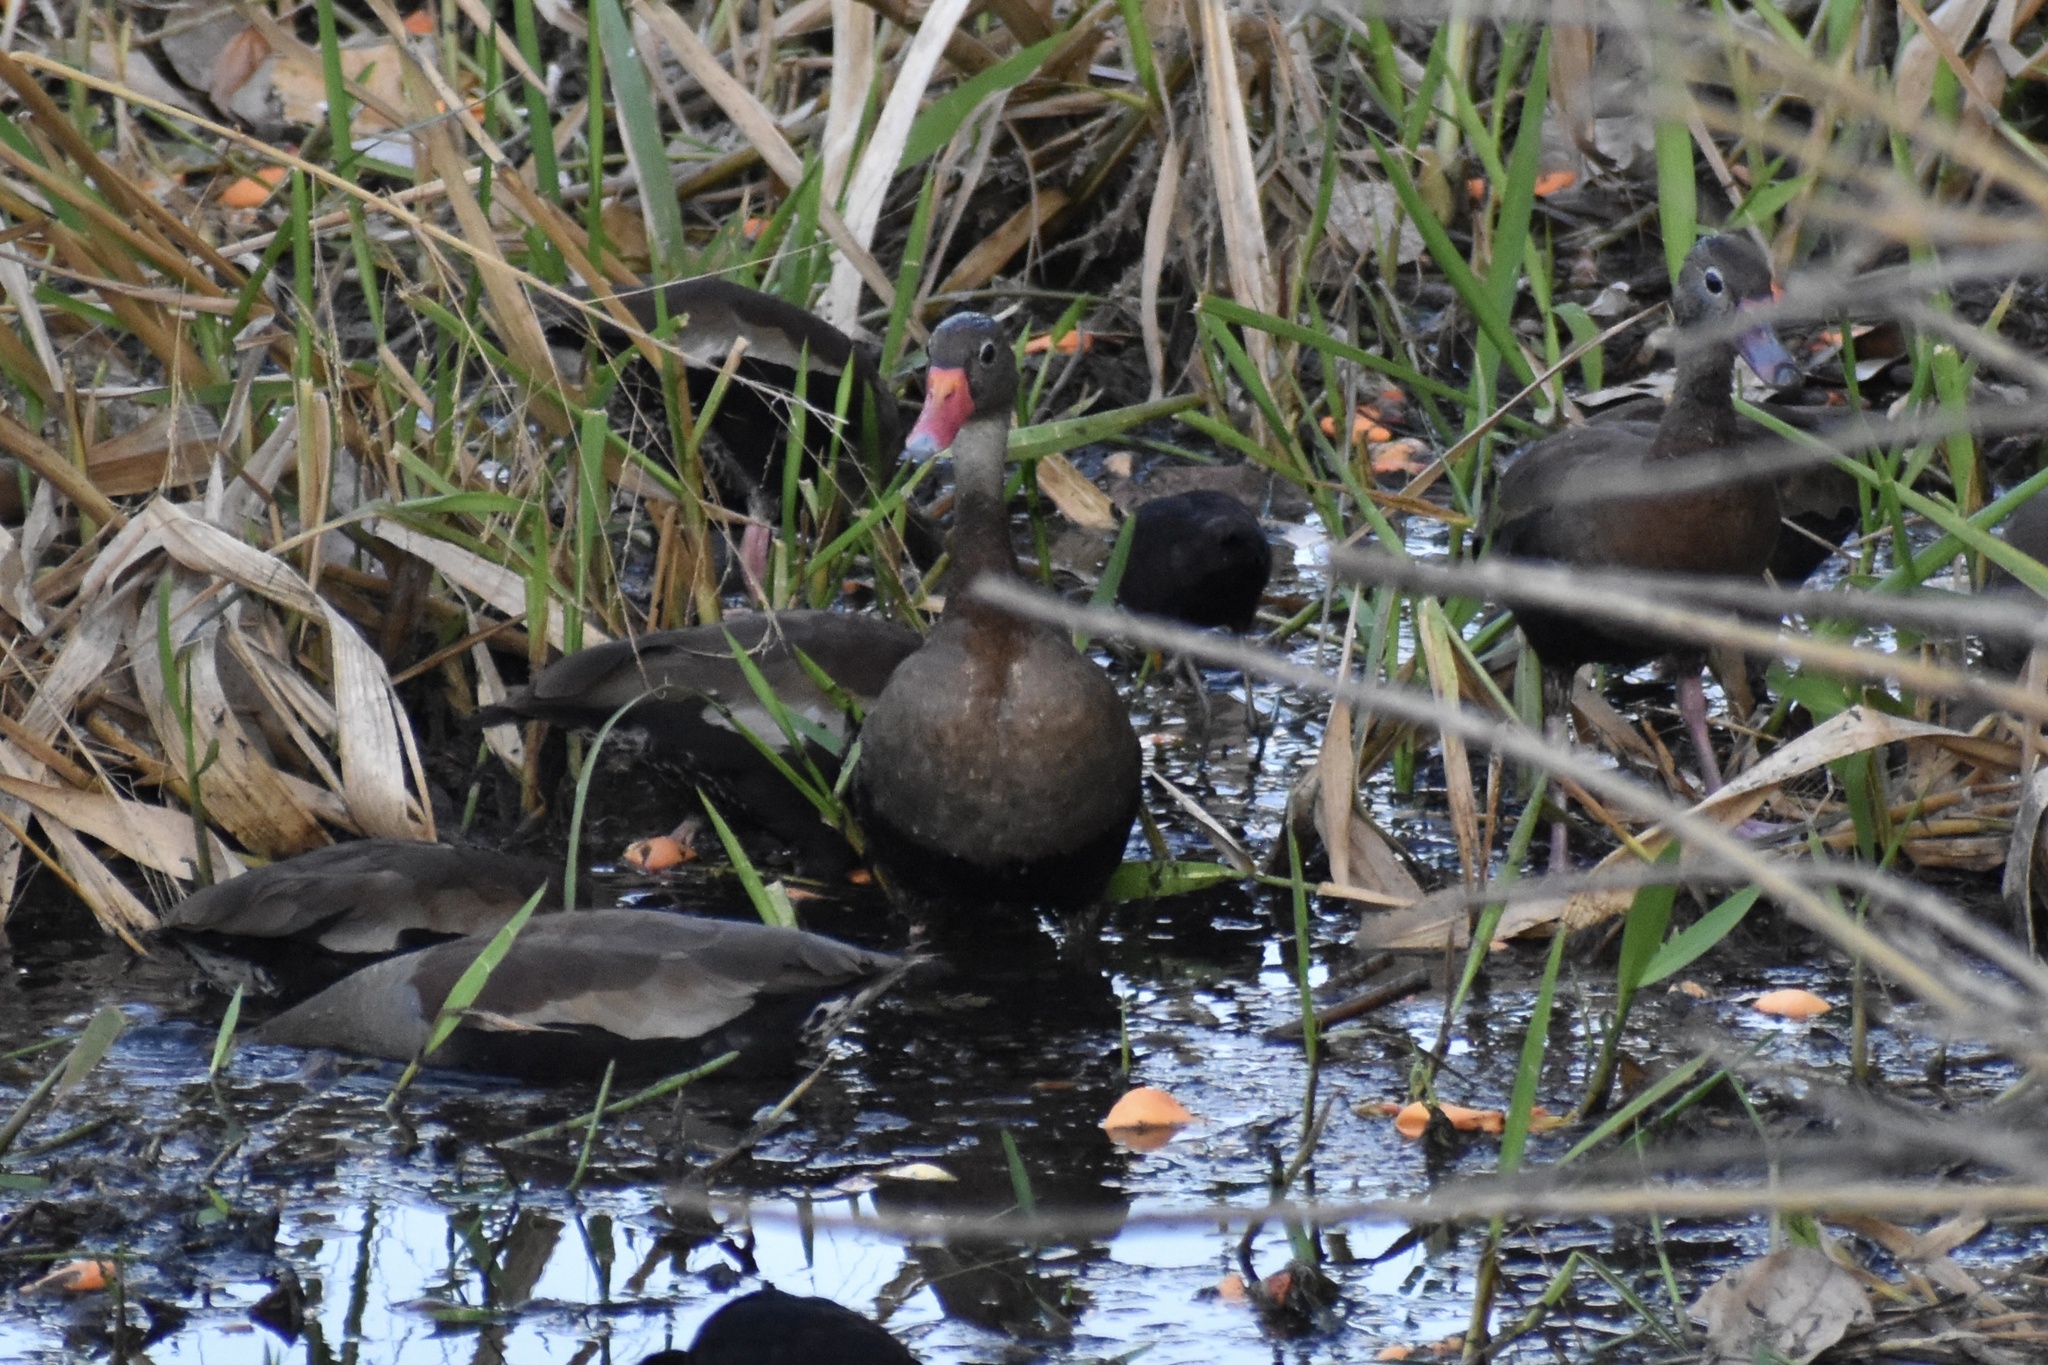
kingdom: Animalia
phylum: Chordata
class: Aves
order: Anseriformes
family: Anatidae
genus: Dendrocygna
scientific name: Dendrocygna autumnalis
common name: Black-bellied whistling duck
